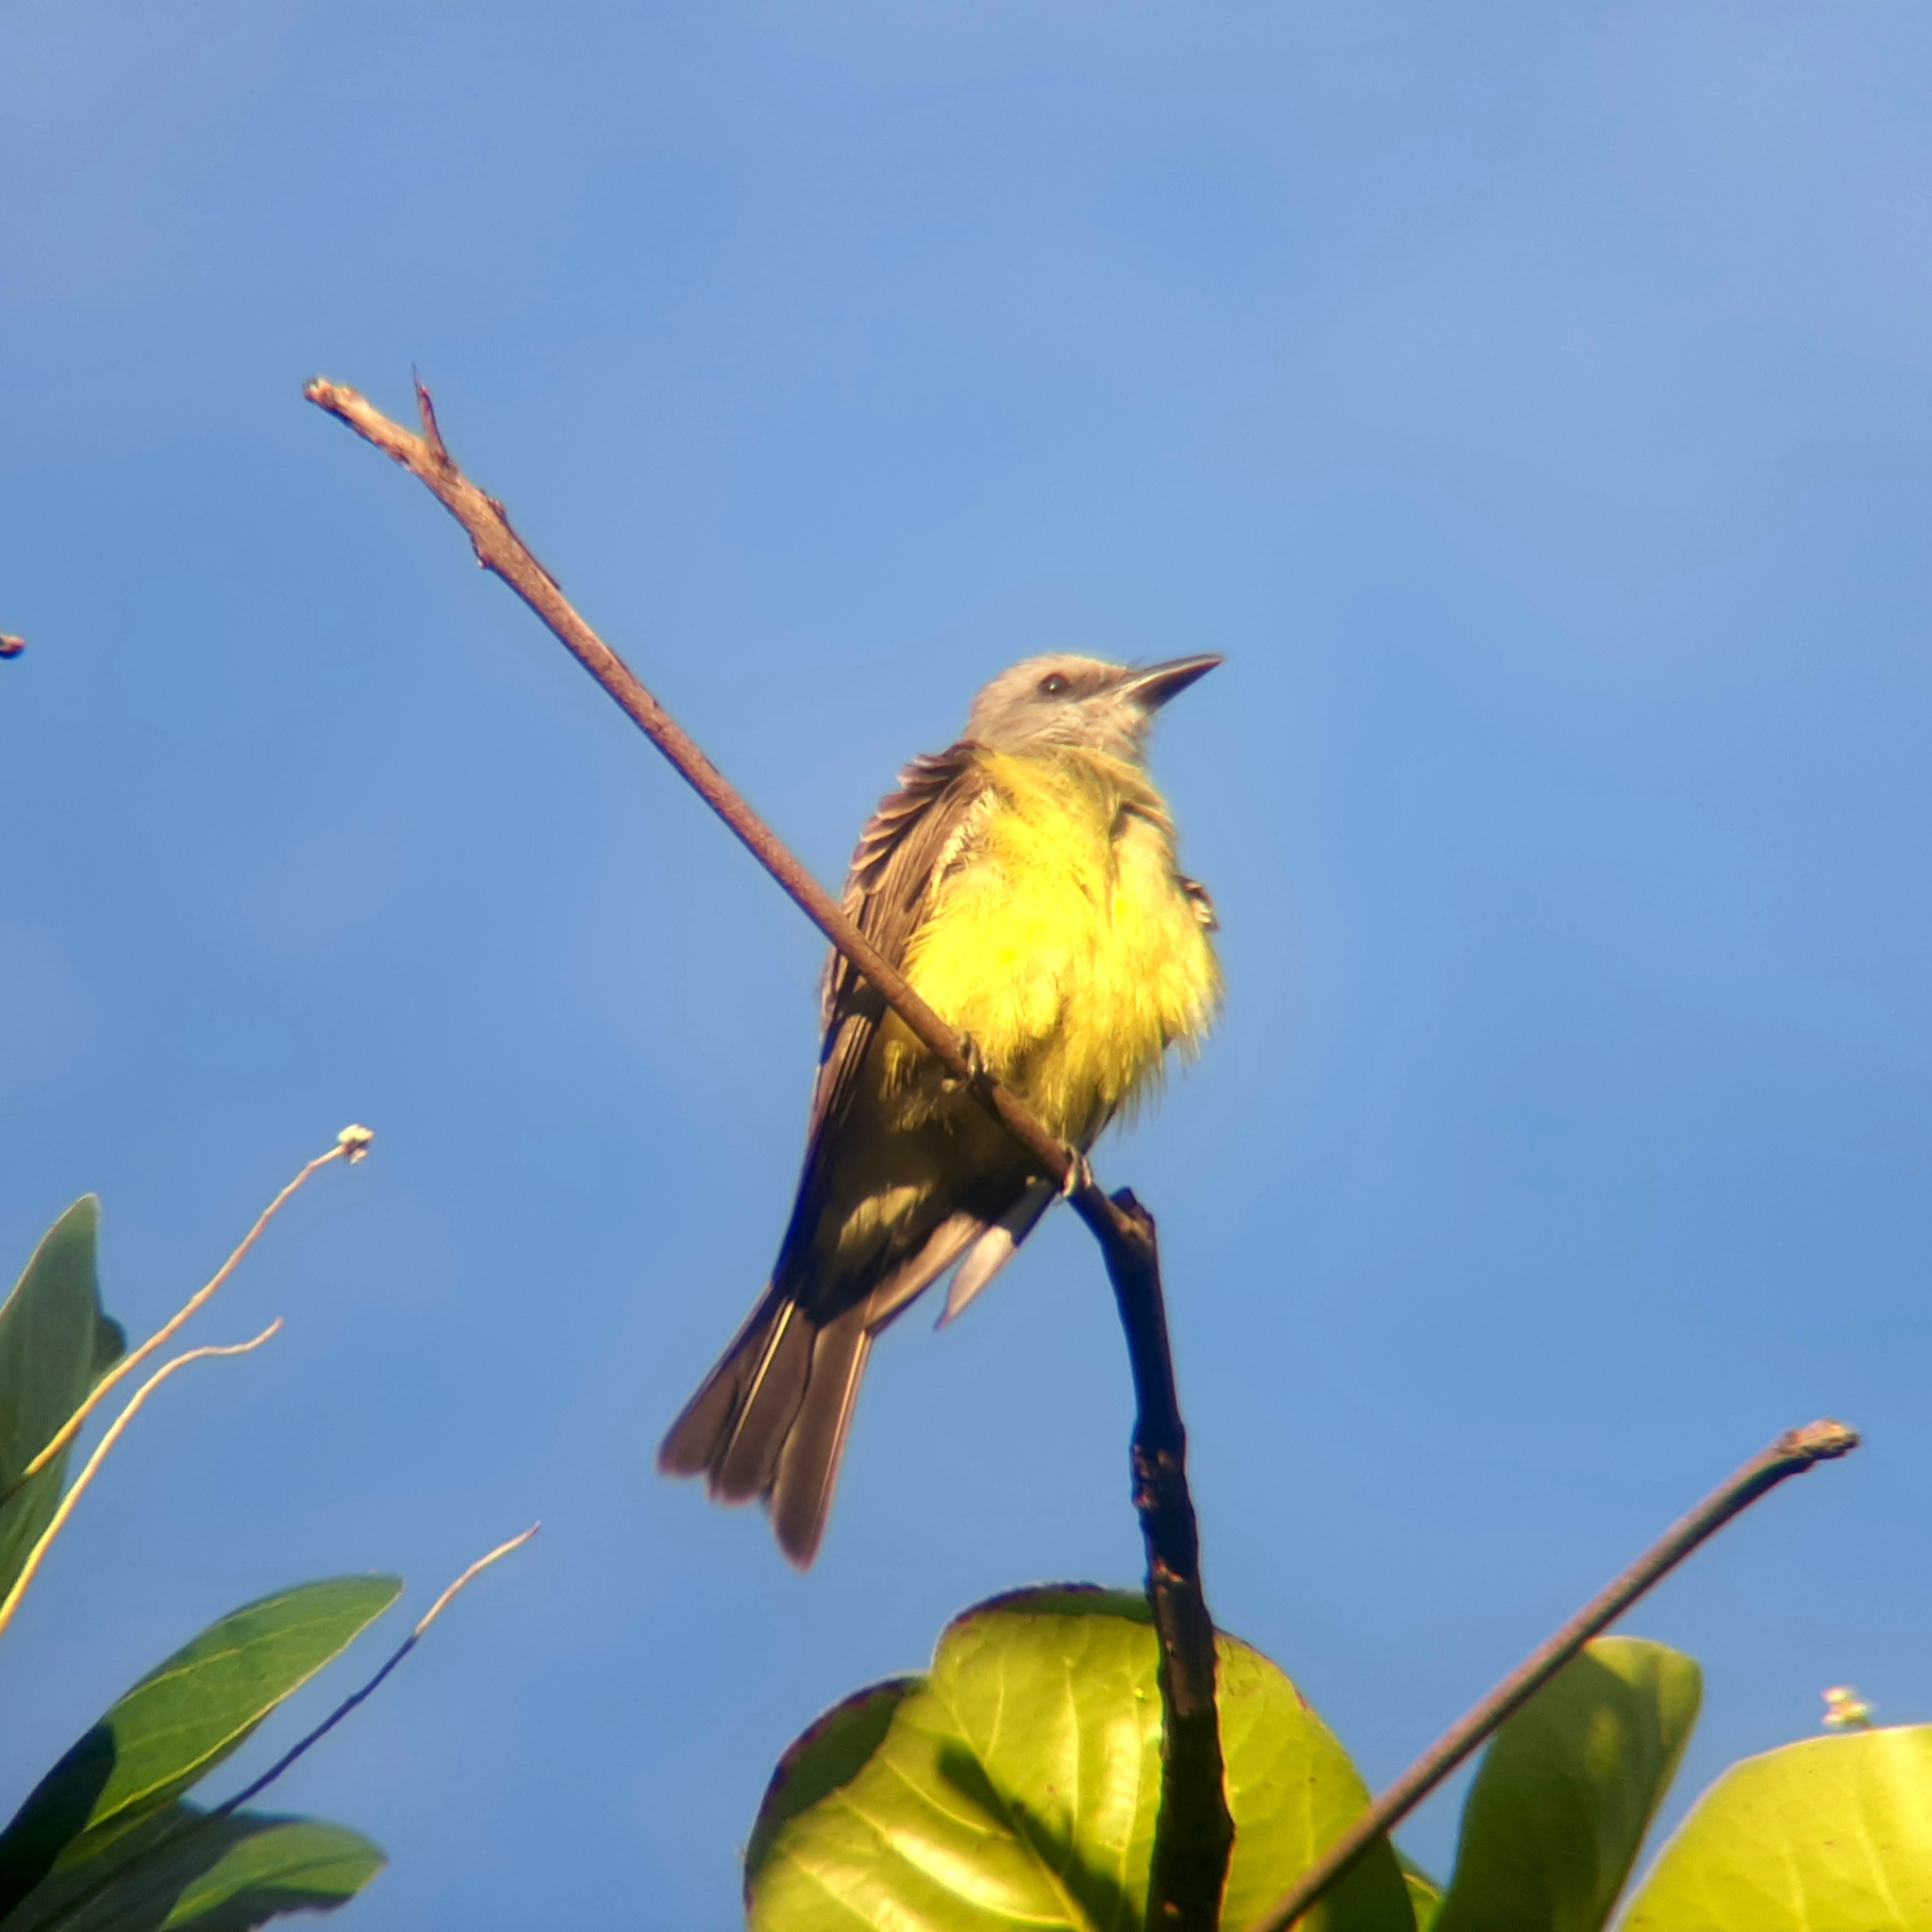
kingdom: Animalia
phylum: Chordata
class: Aves
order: Passeriformes
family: Tyrannidae
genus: Tyrannus
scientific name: Tyrannus melancholicus
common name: Tropical kingbird
